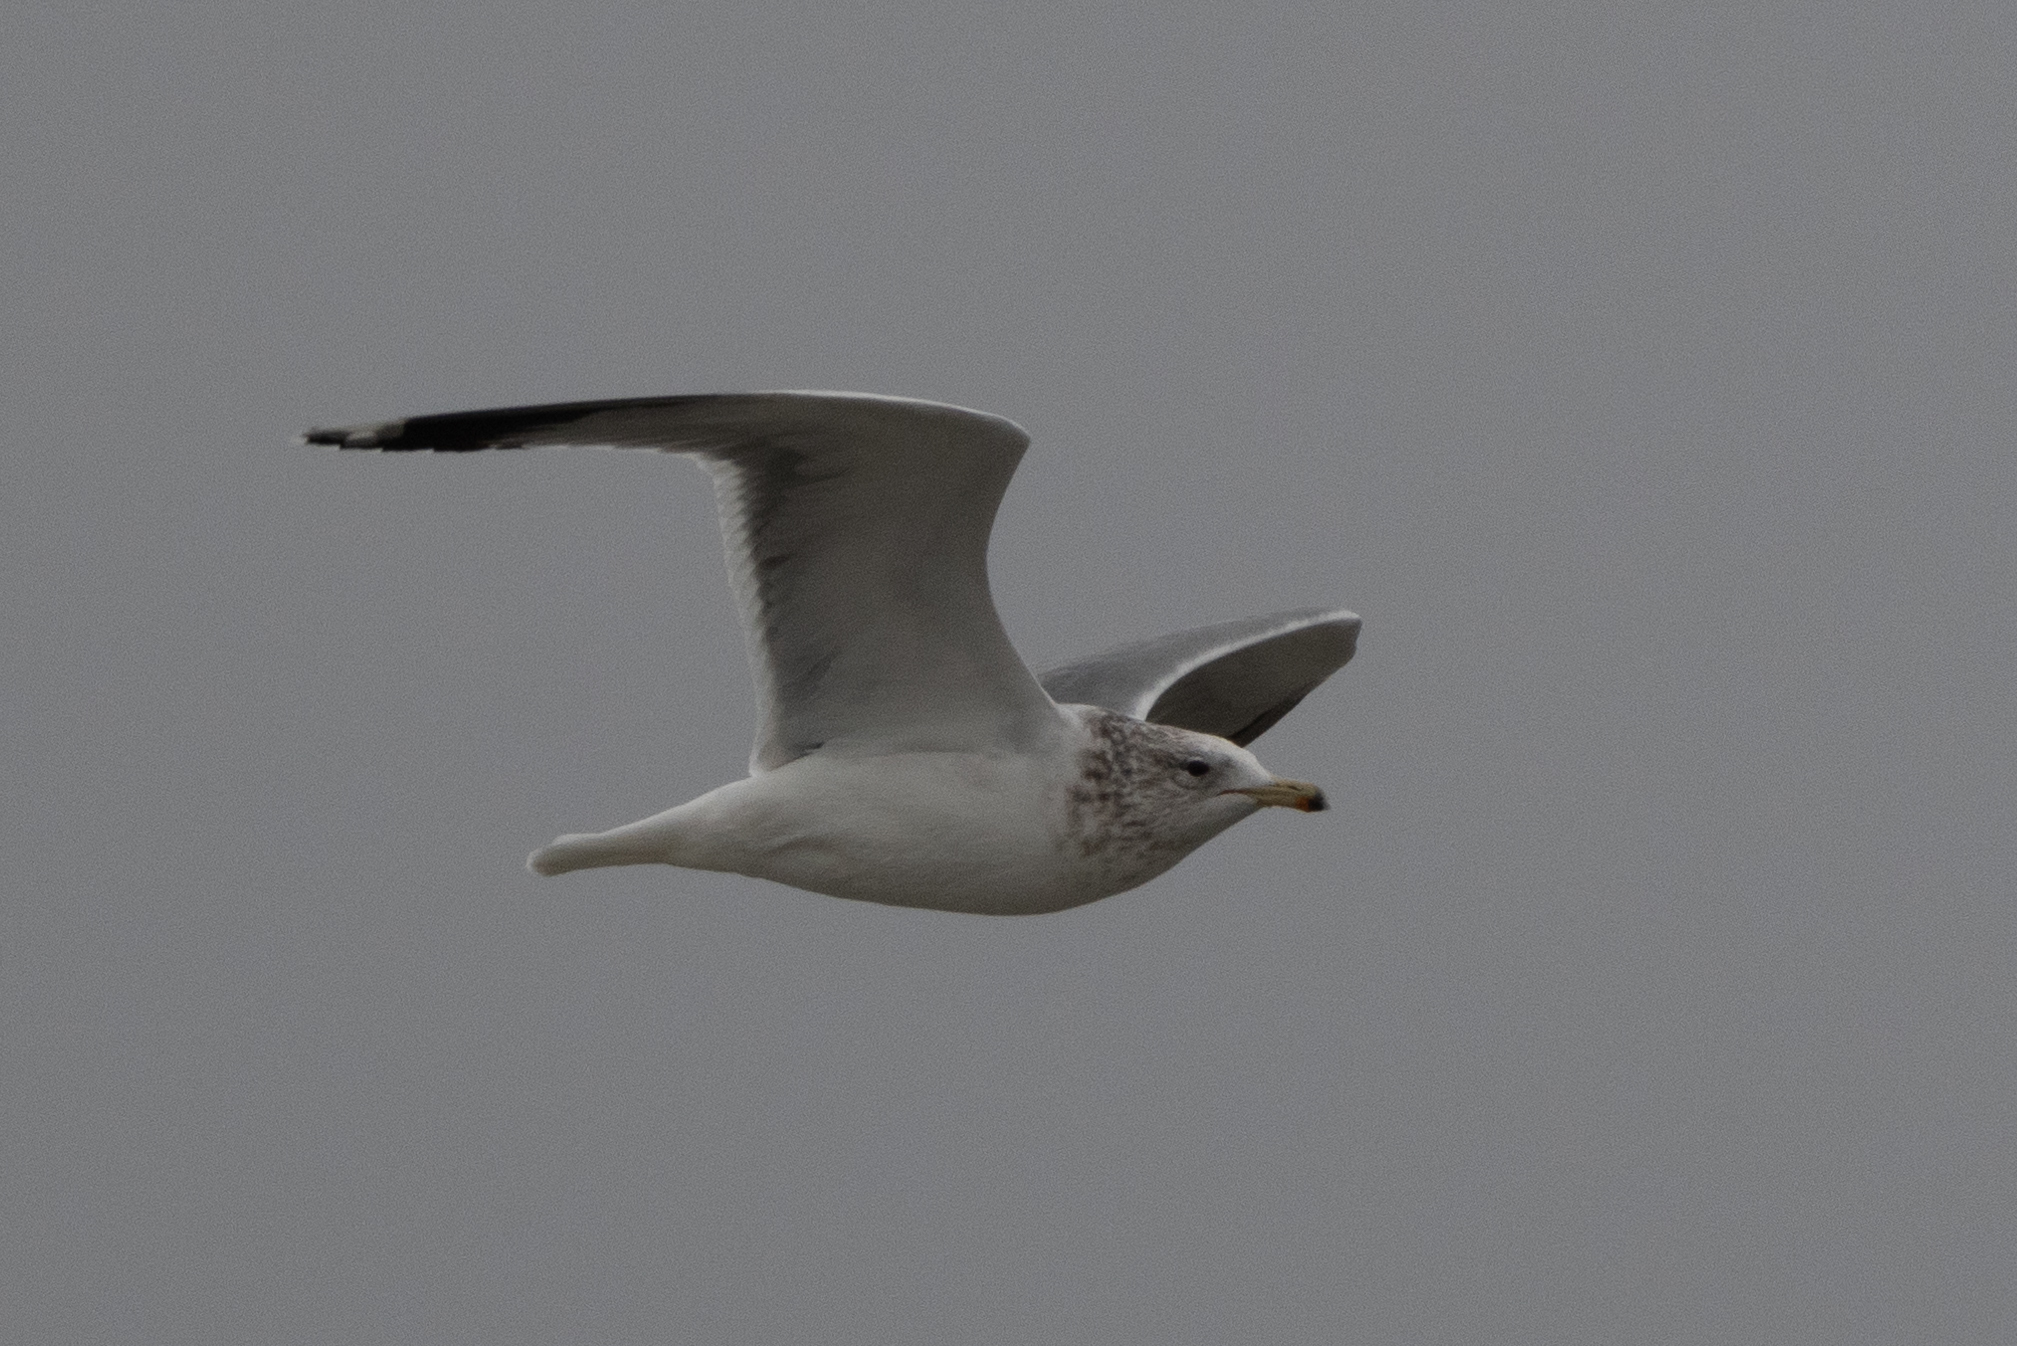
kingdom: Animalia
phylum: Chordata
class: Aves
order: Charadriiformes
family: Laridae
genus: Larus
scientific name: Larus californicus
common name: California gull
